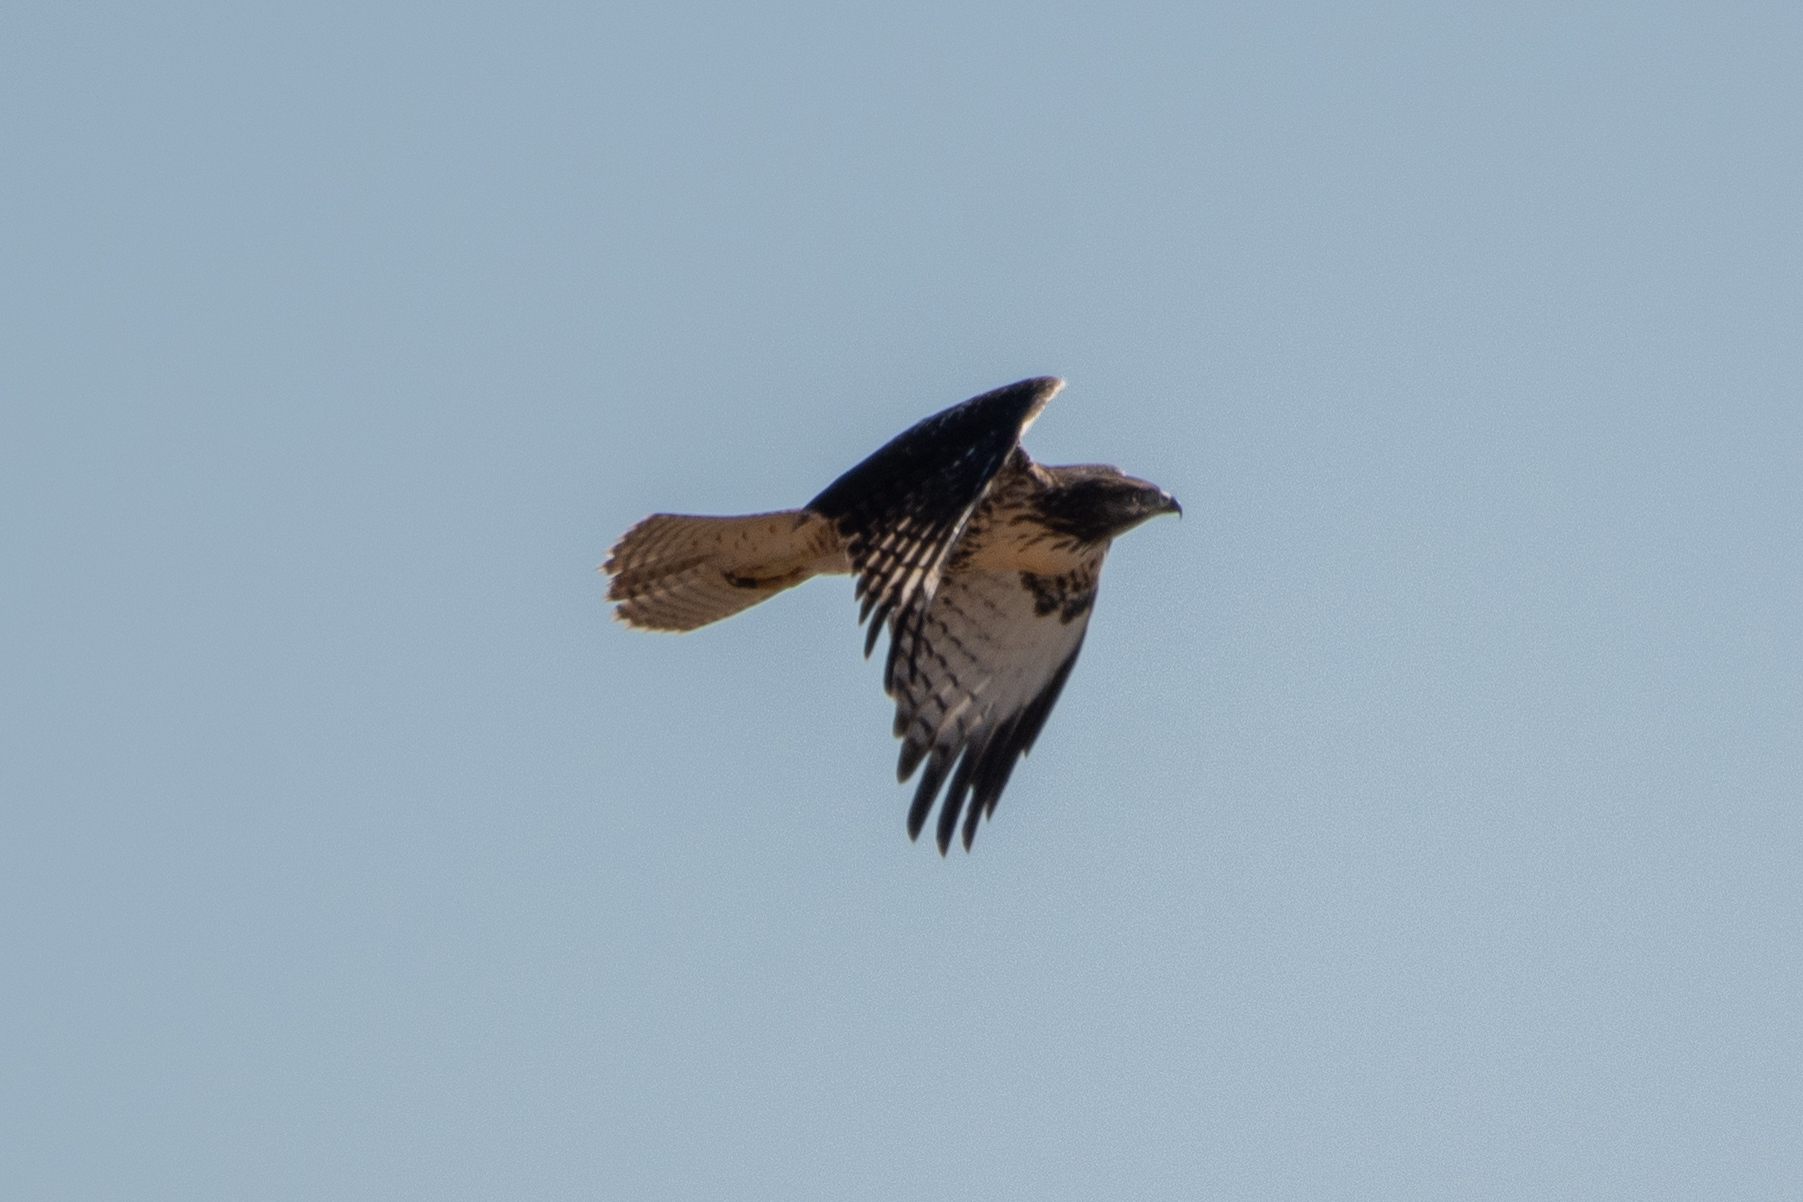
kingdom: Animalia
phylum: Chordata
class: Aves
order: Accipitriformes
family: Accipitridae
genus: Buteo
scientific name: Buteo jamaicensis
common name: Red-tailed hawk
